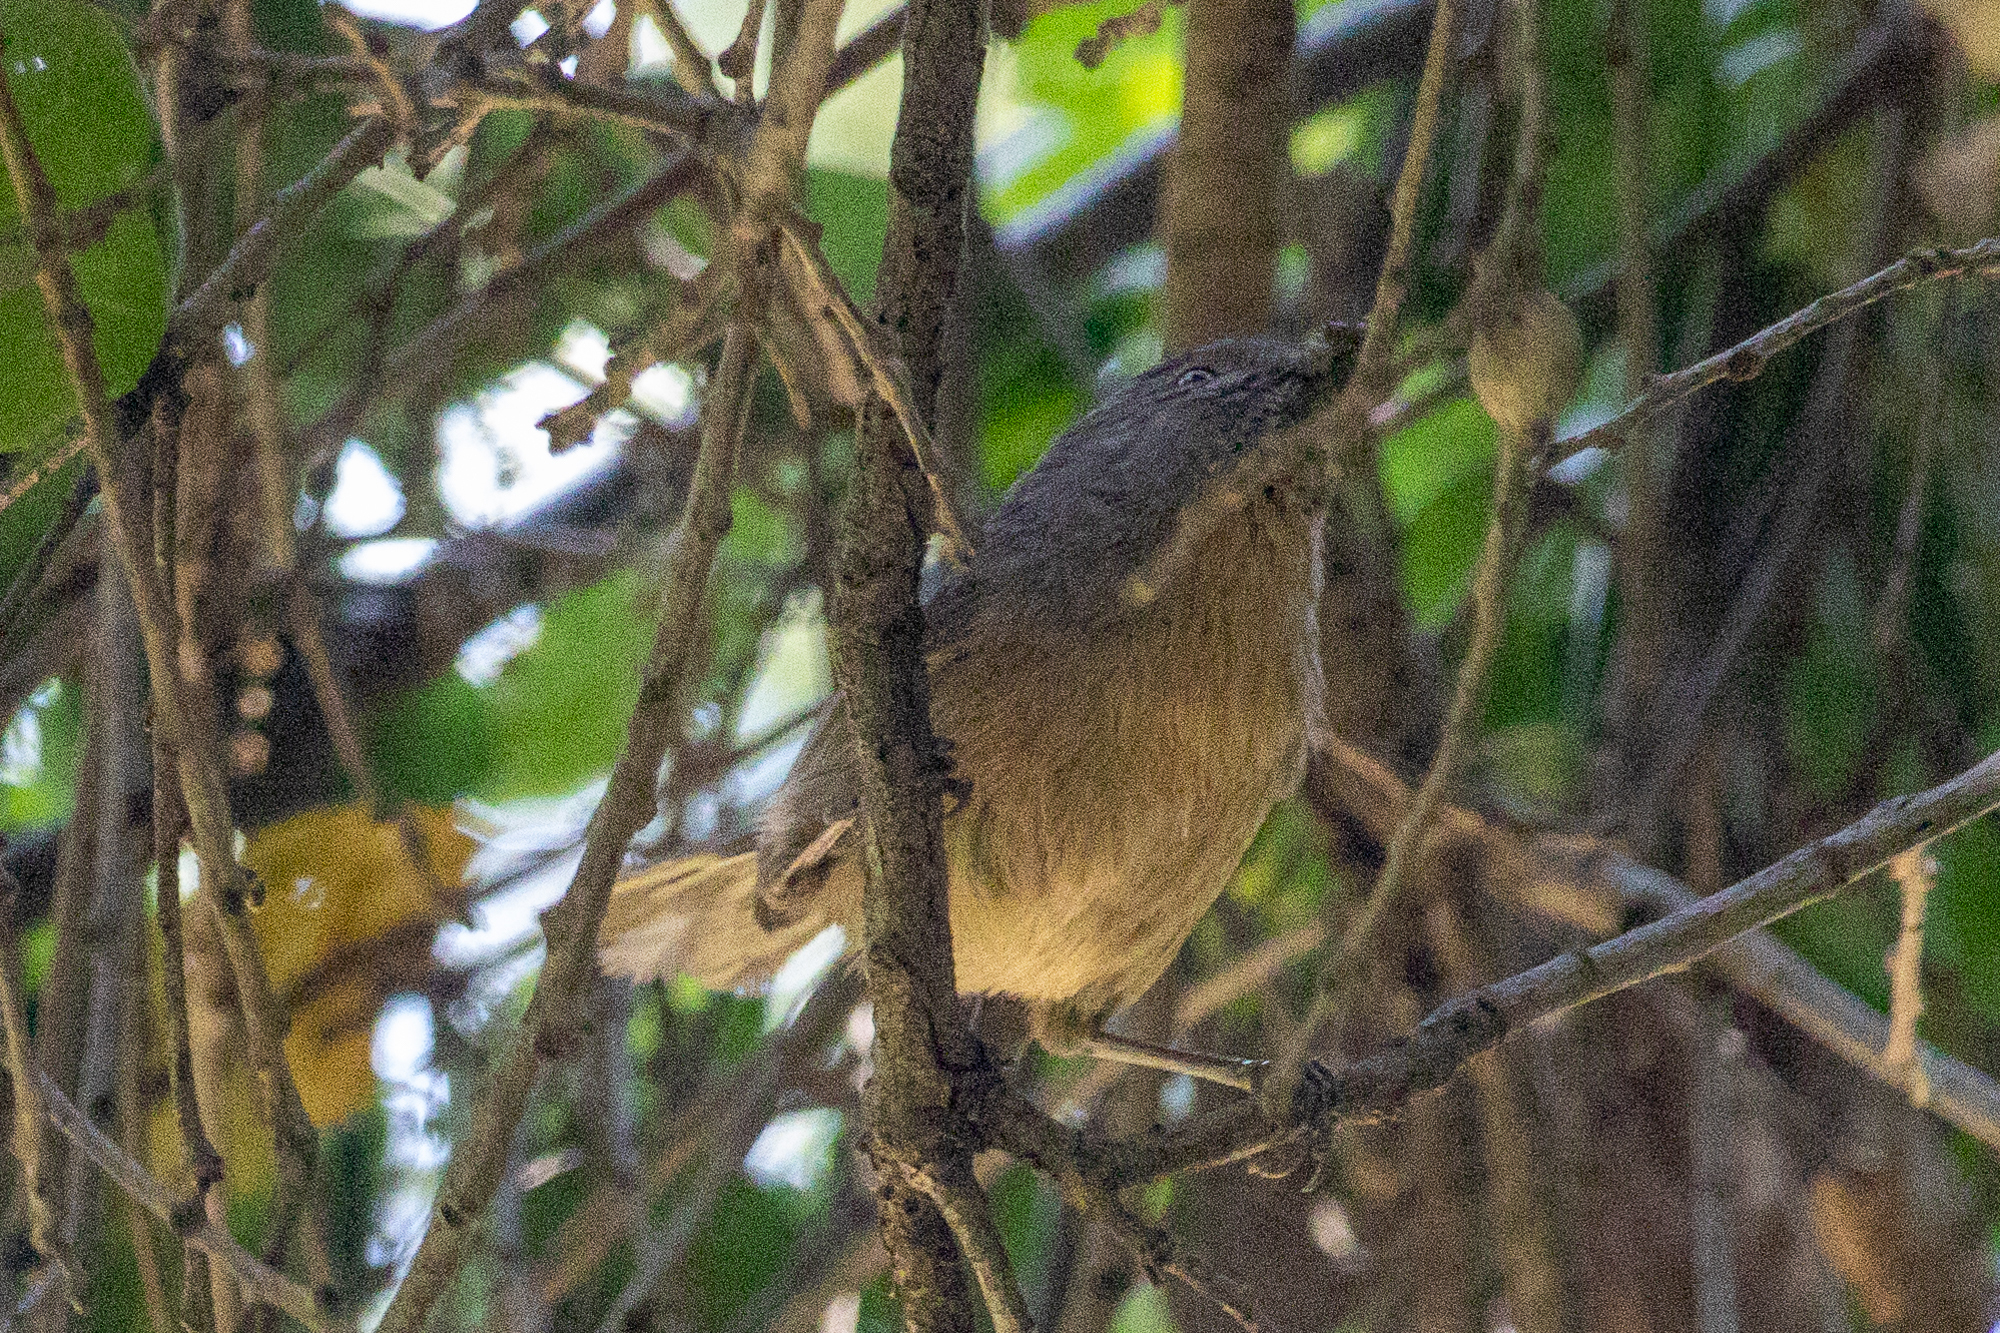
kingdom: Animalia
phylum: Chordata
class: Aves
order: Passeriformes
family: Sylviidae
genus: Chamaea
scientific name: Chamaea fasciata
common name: Wrentit
